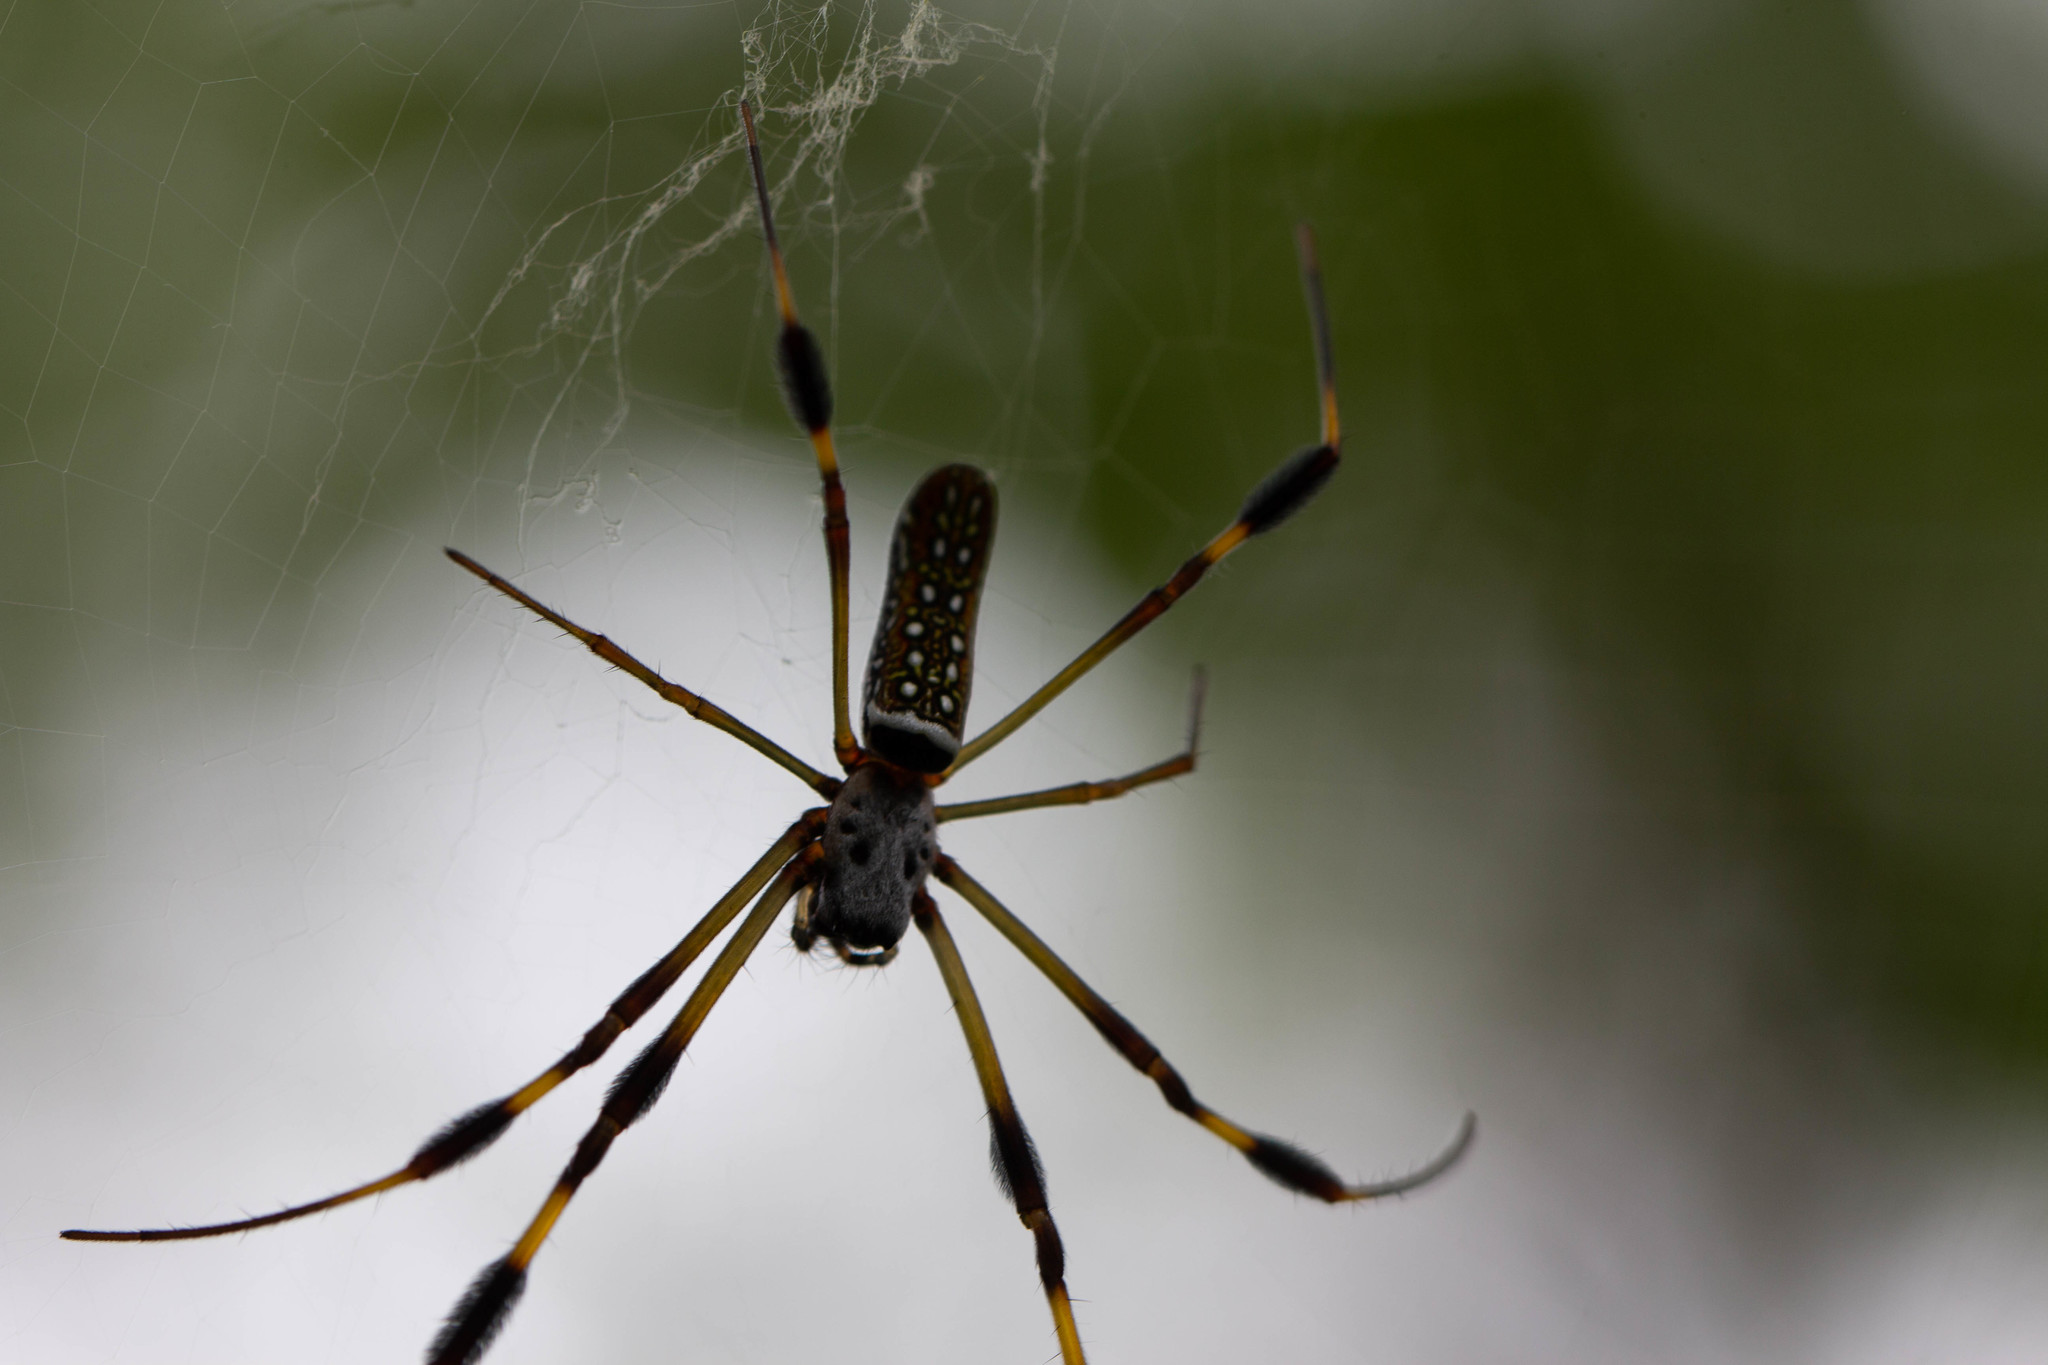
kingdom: Animalia
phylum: Arthropoda
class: Arachnida
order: Araneae
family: Araneidae
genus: Trichonephila
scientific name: Trichonephila clavipes
